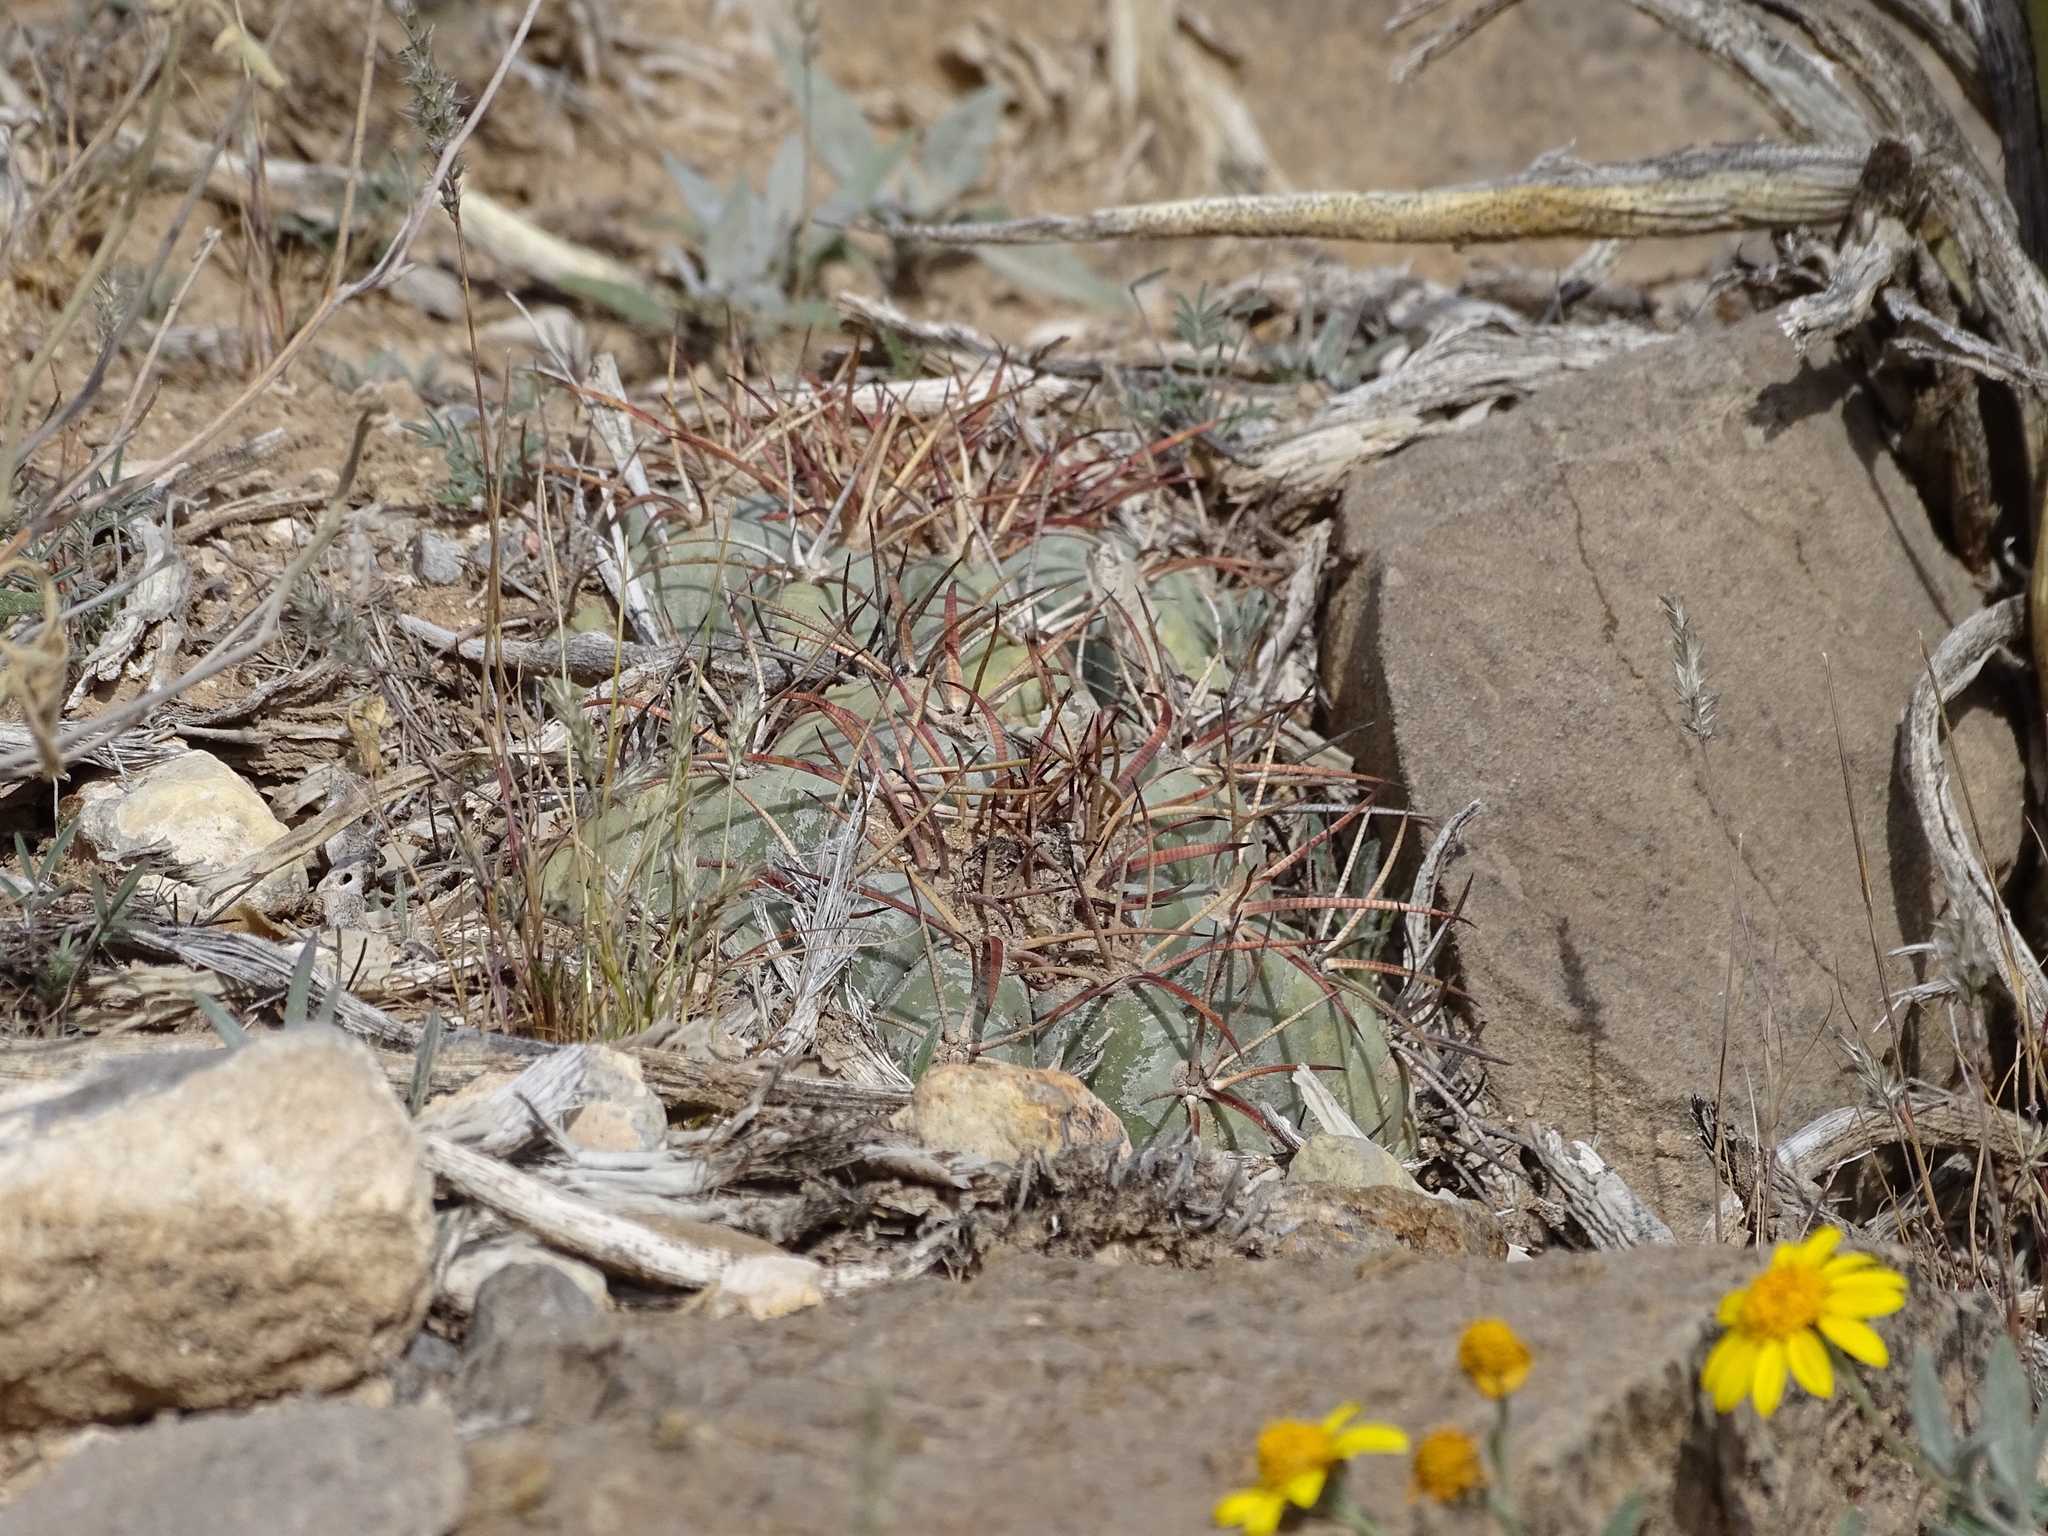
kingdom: Plantae
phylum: Tracheophyta
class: Magnoliopsida
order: Caryophyllales
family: Cactaceae
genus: Echinocactus
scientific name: Echinocactus horizonthalonius
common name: Devilshead
